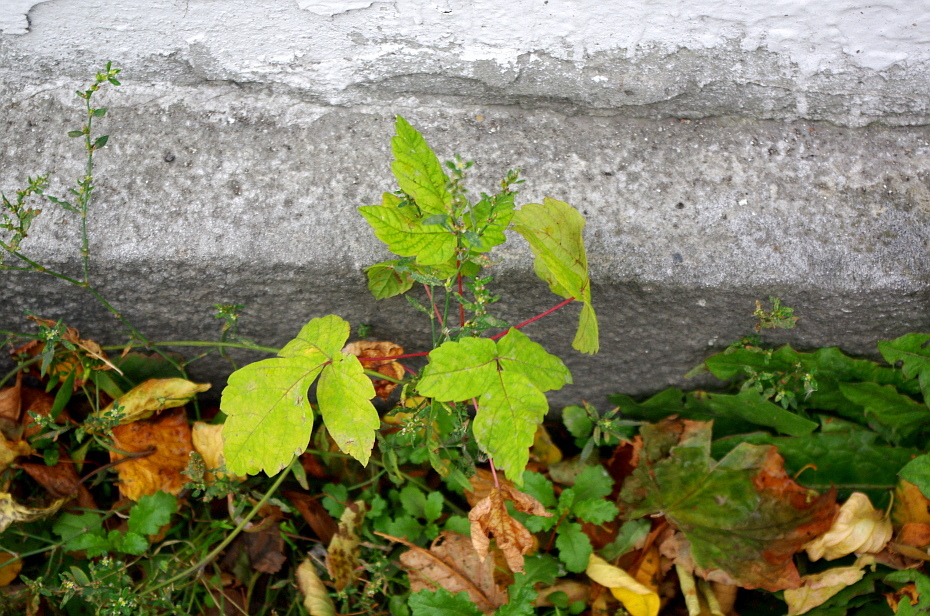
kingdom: Plantae
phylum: Tracheophyta
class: Magnoliopsida
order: Sapindales
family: Sapindaceae
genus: Acer
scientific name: Acer negundo
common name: Ashleaf maple
